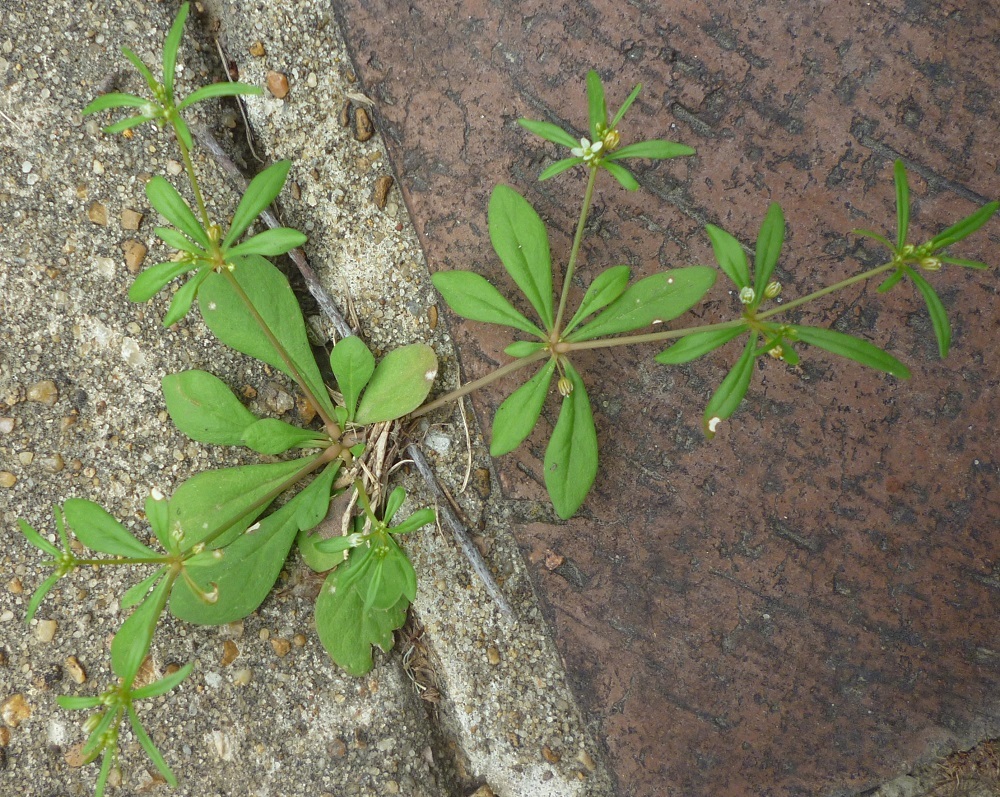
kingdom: Plantae
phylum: Tracheophyta
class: Magnoliopsida
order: Caryophyllales
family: Molluginaceae
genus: Mollugo
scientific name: Mollugo verticillata
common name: Green carpetweed
